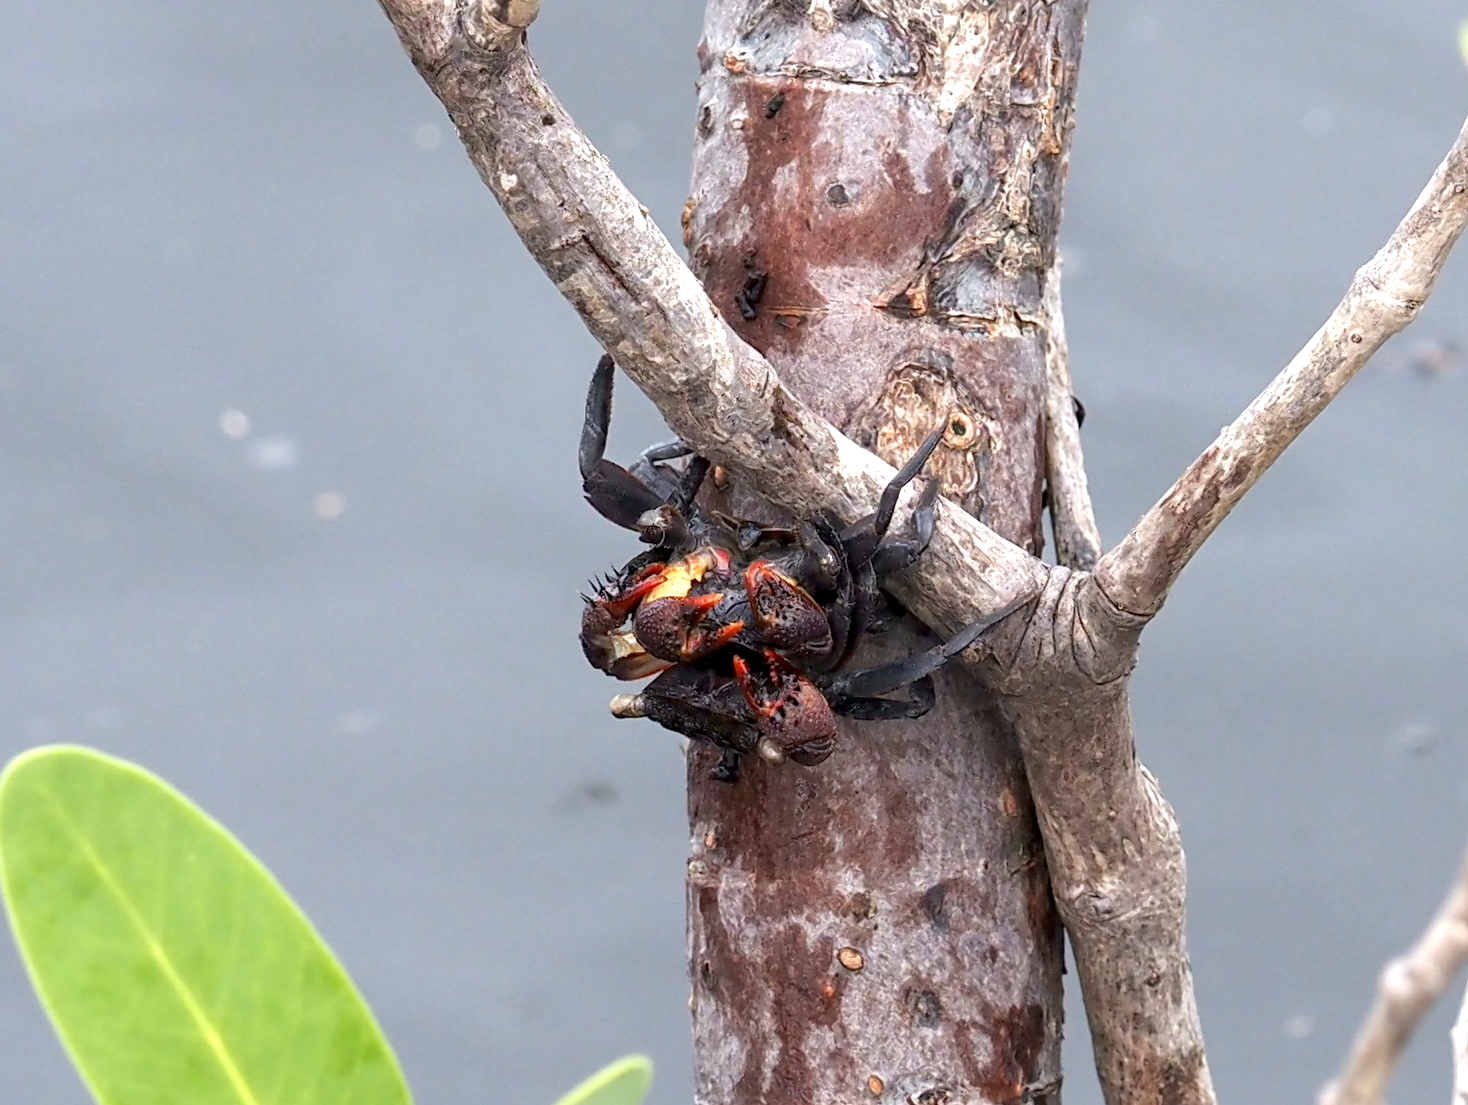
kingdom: Animalia
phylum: Arthropoda
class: Malacostraca
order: Decapoda
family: Sesarmidae
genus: Aratus
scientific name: Aratus pisonii
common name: Mangrove crab
